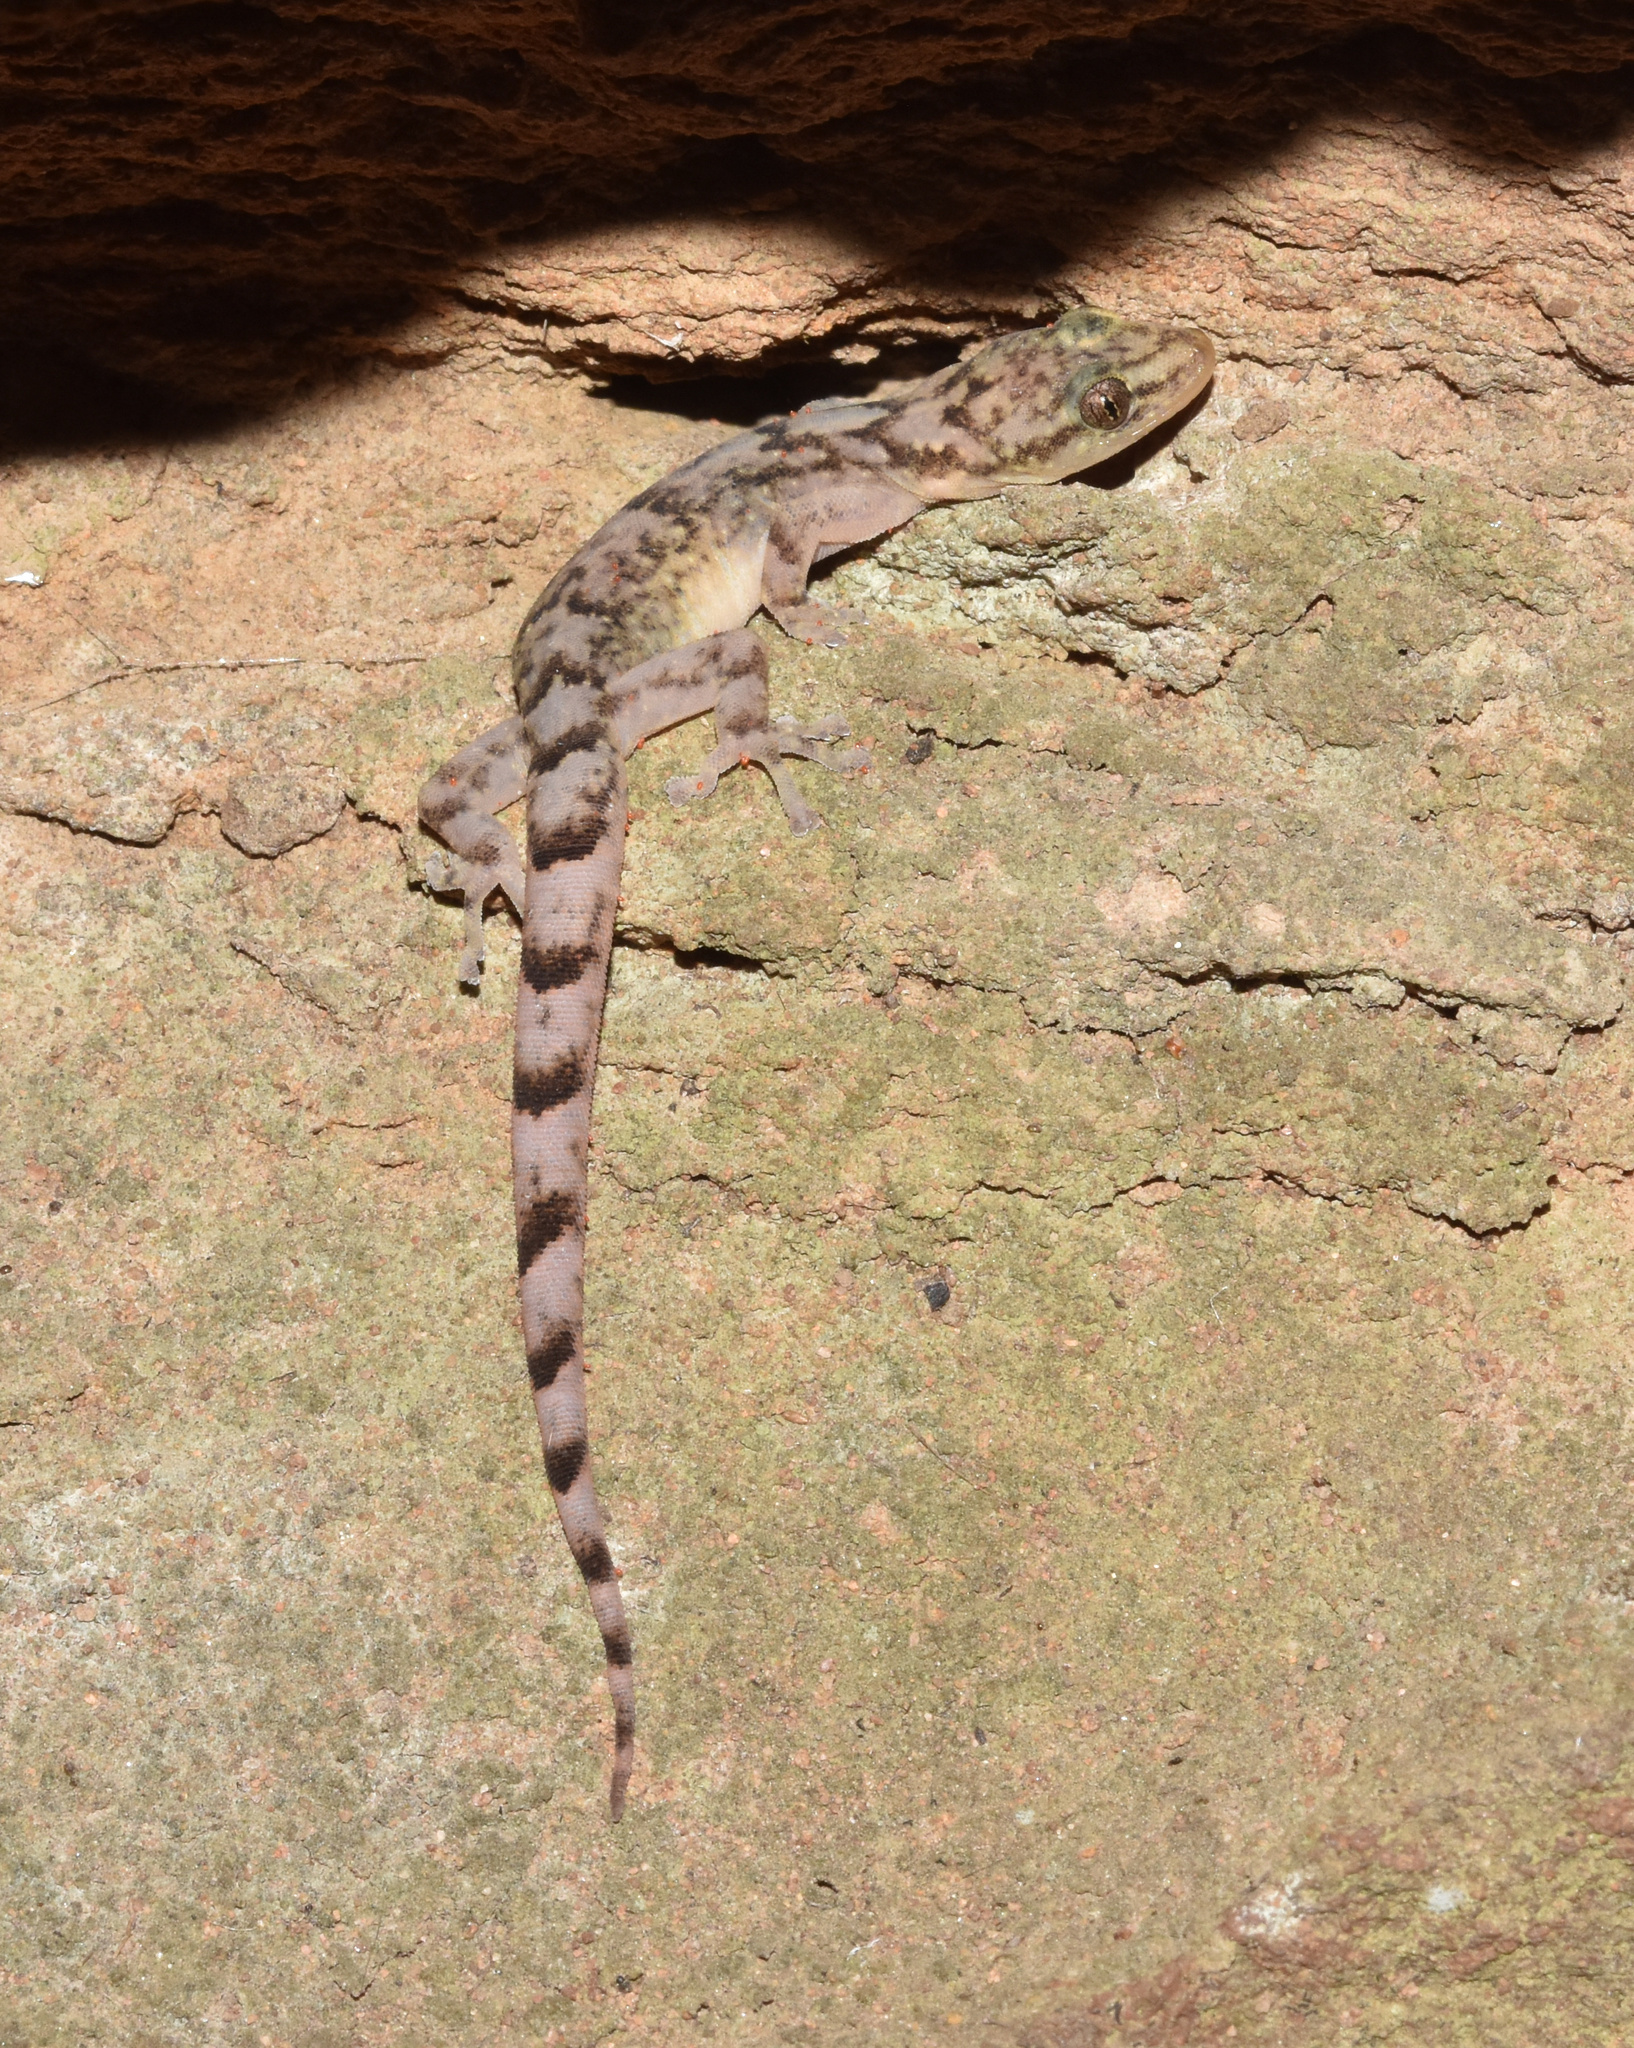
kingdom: Animalia
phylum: Chordata
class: Squamata
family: Gekkonidae
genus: Afroedura
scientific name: Afroedura pondolia
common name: Pondo flat gecko
